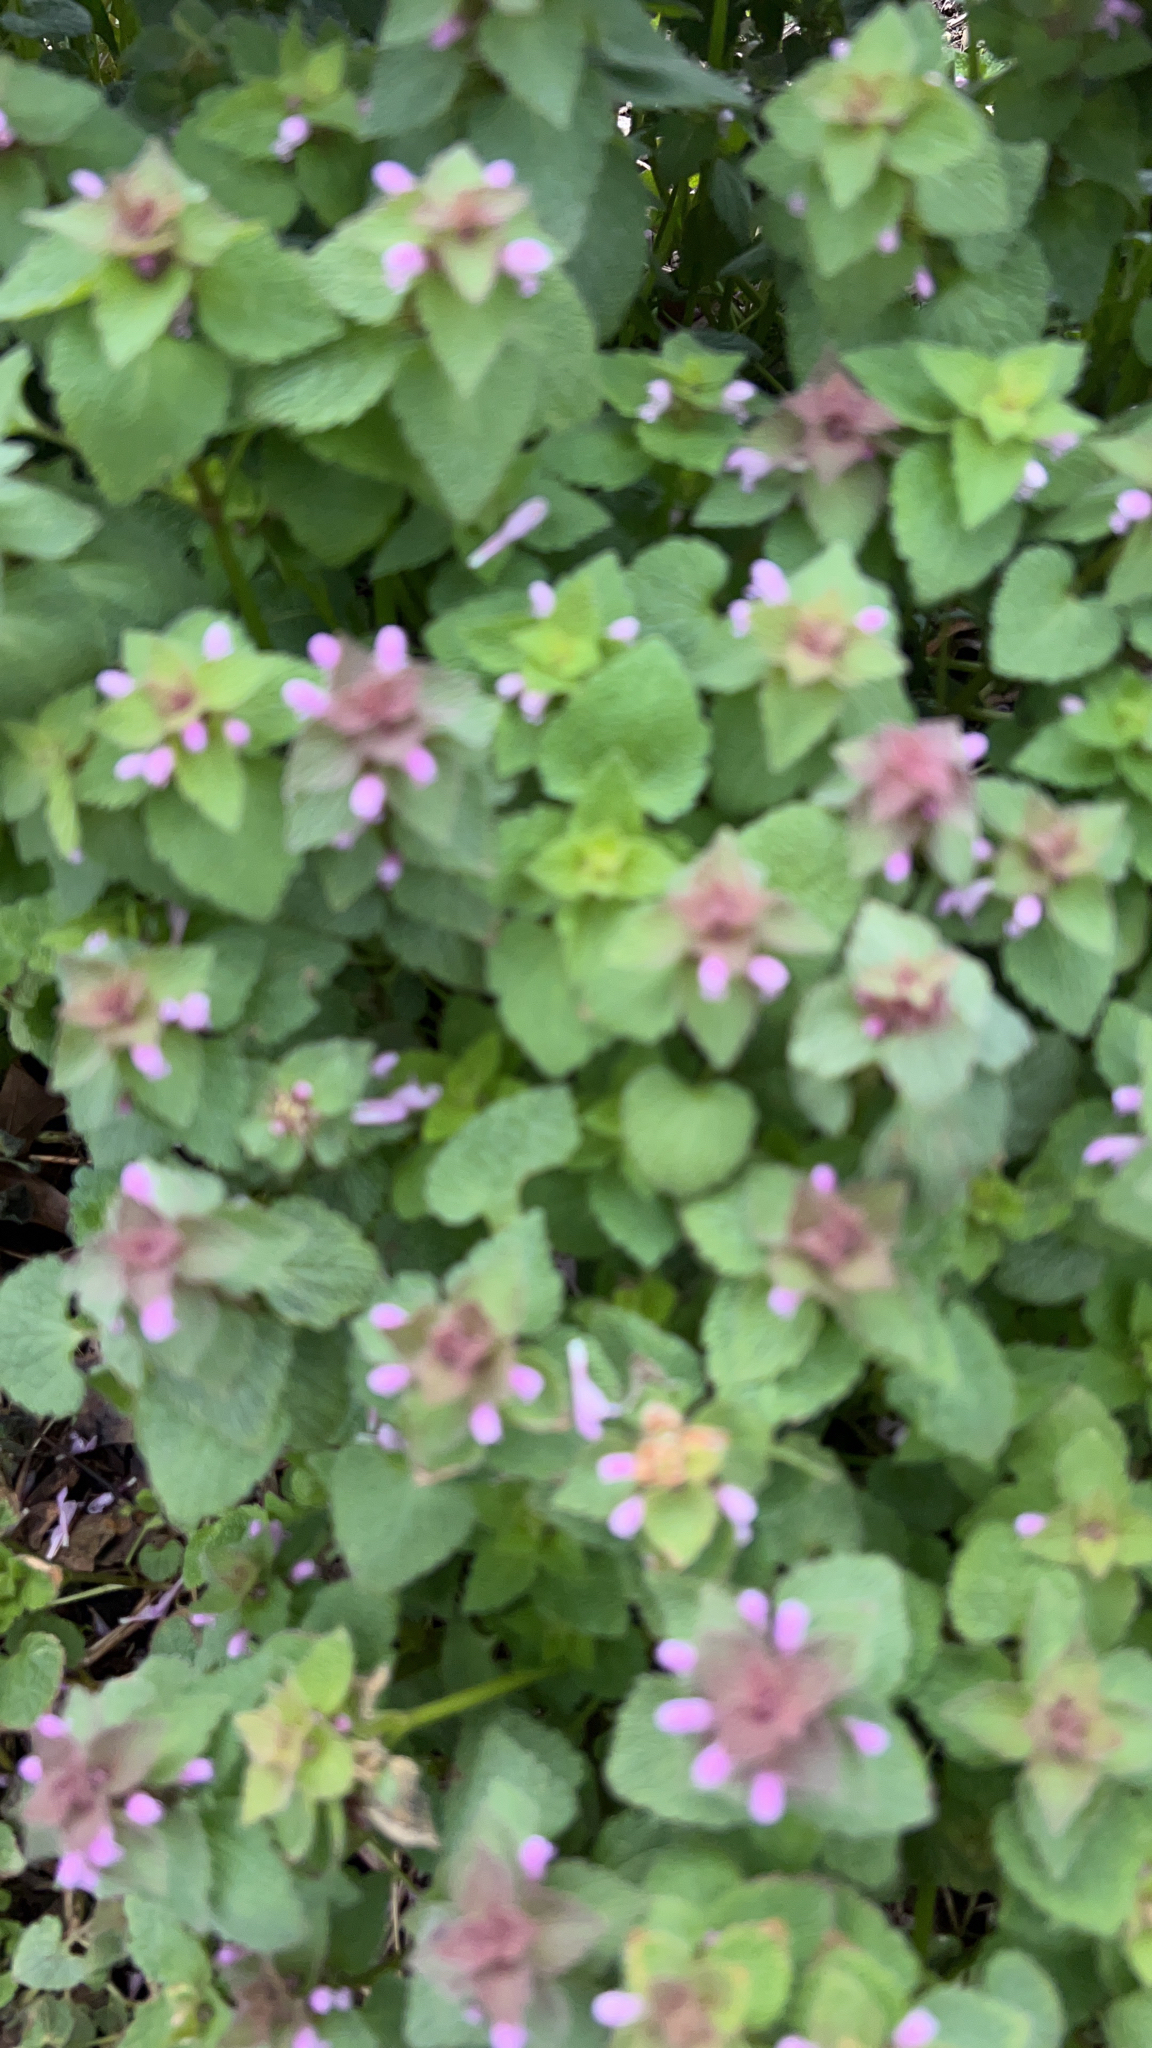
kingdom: Plantae
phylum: Tracheophyta
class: Magnoliopsida
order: Lamiales
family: Lamiaceae
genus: Lamium
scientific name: Lamium purpureum
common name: Red dead-nettle
